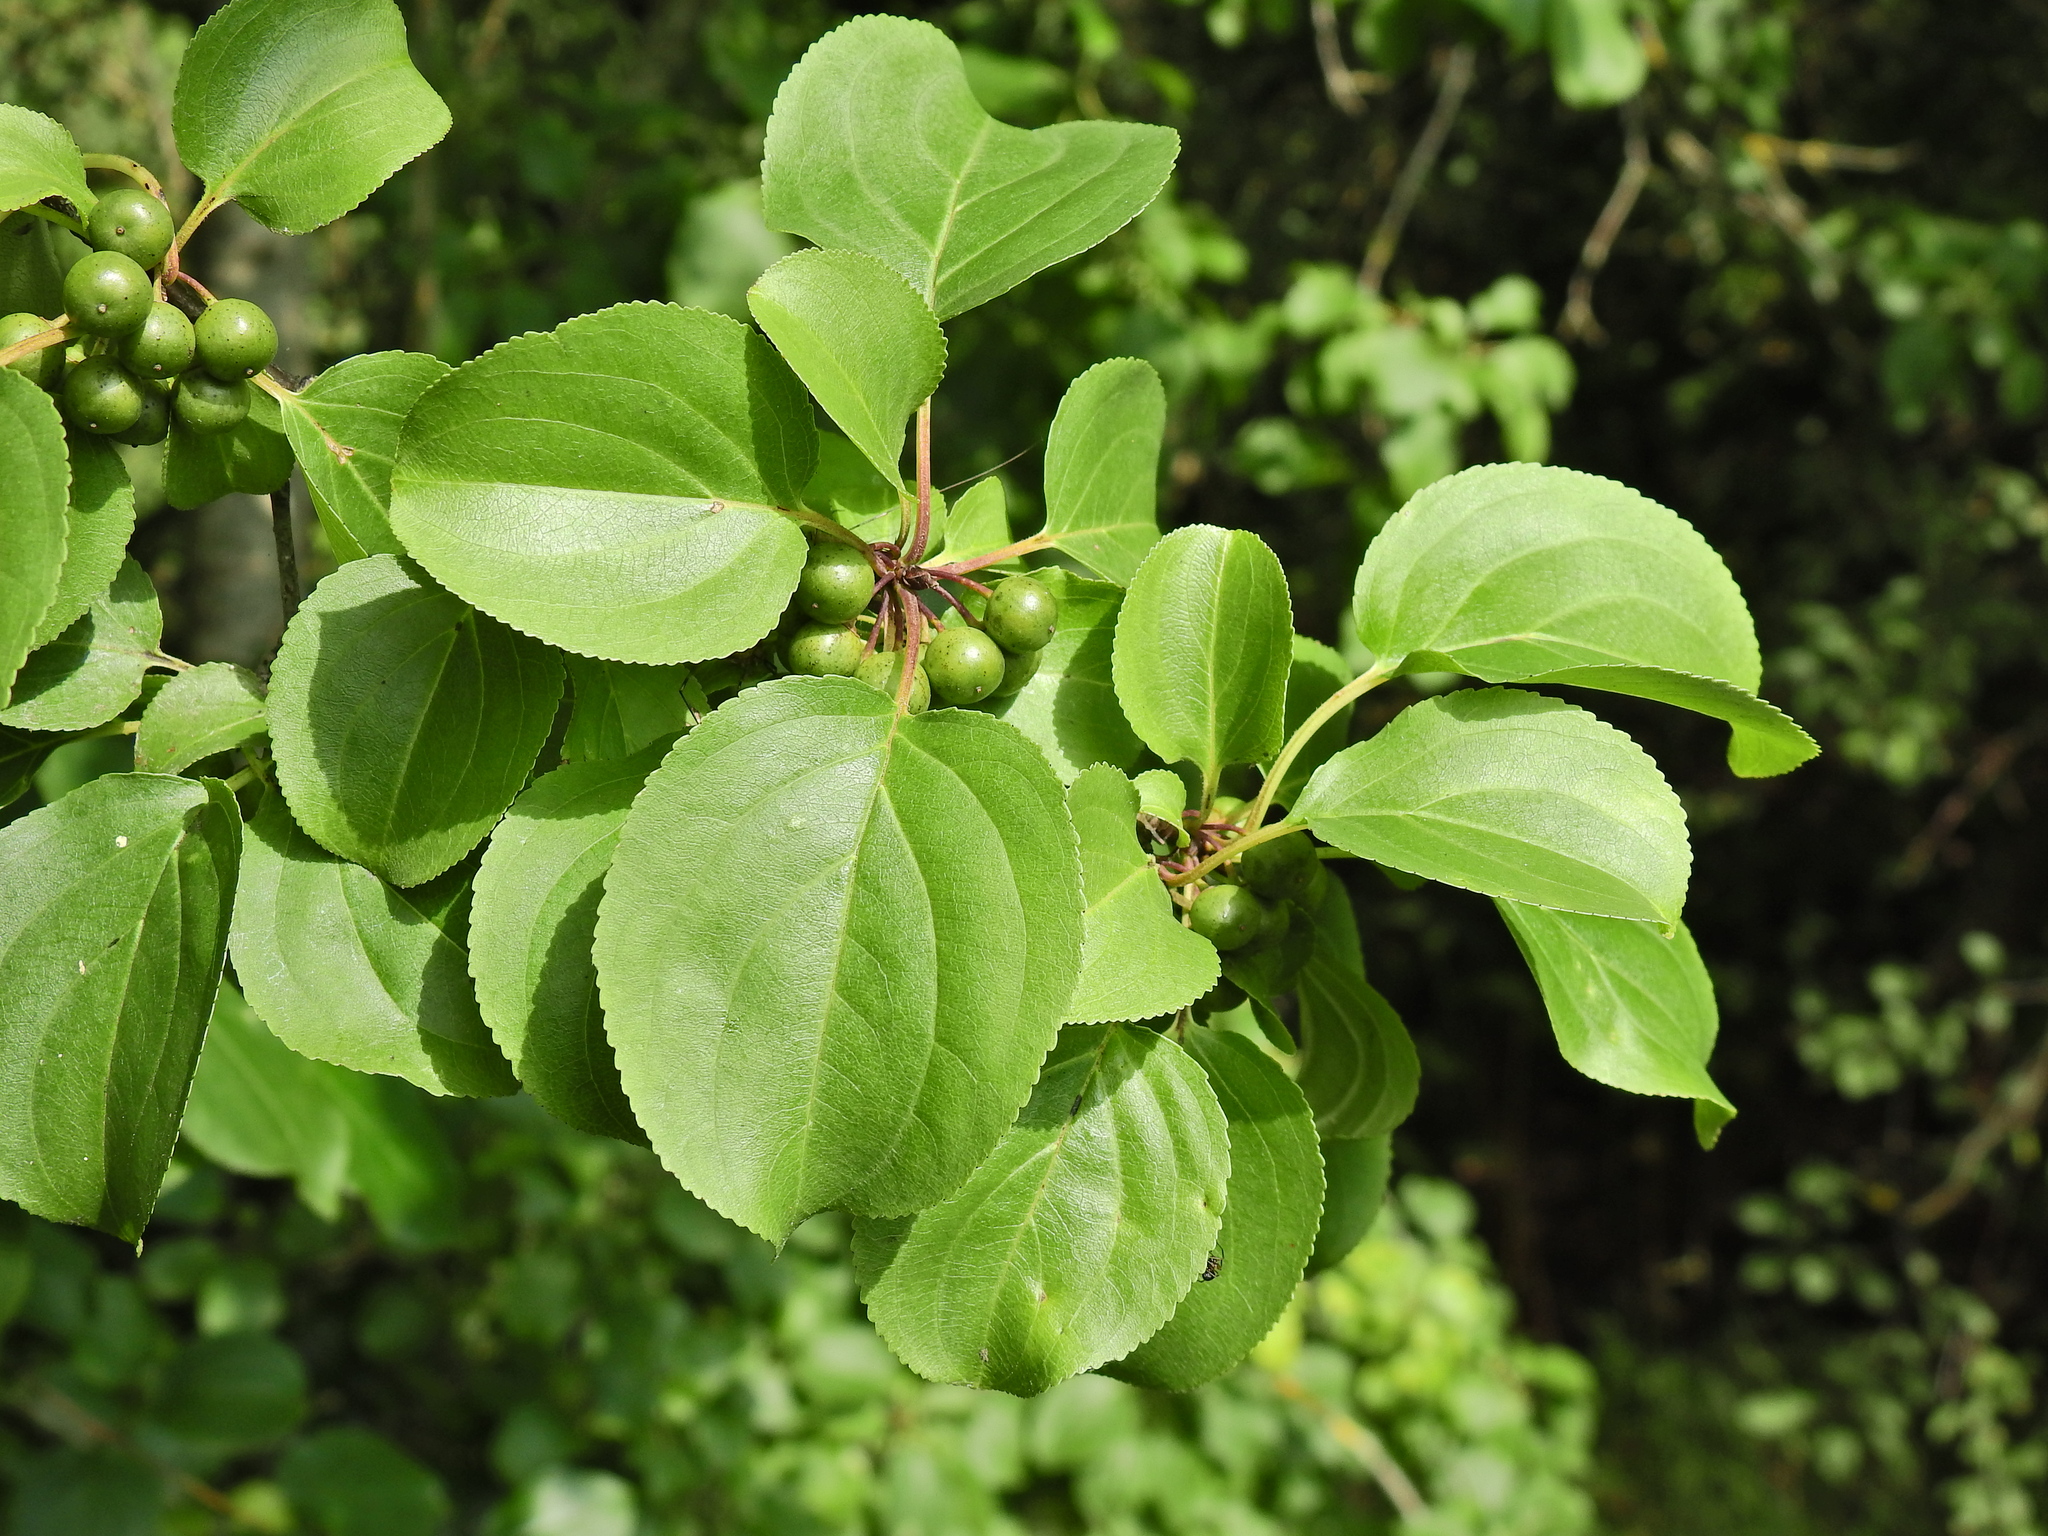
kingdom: Plantae
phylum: Tracheophyta
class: Magnoliopsida
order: Rosales
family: Rhamnaceae
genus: Rhamnus
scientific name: Rhamnus cathartica
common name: Common buckthorn
